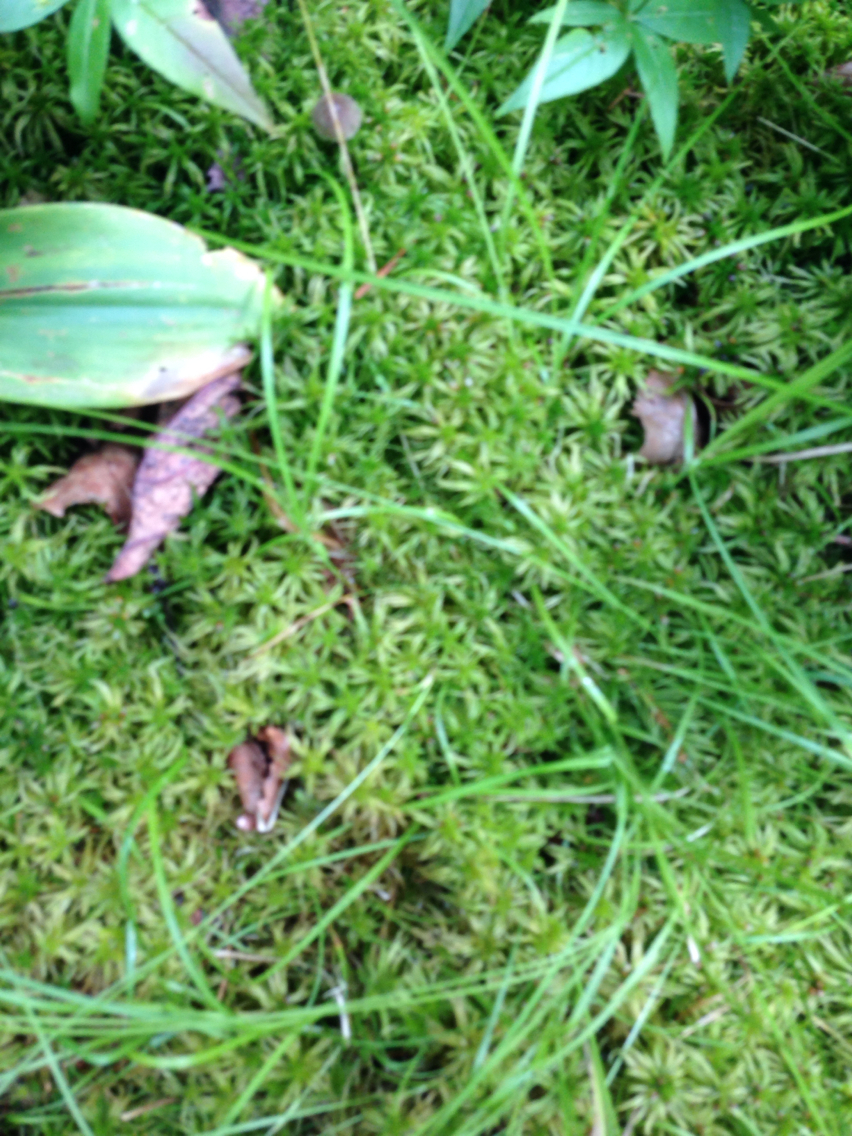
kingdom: Plantae
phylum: Bryophyta
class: Sphagnopsida
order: Sphagnales
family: Sphagnaceae
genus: Sphagnum
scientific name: Sphagnum girgensohnii
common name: Girgensohn's peat moss
